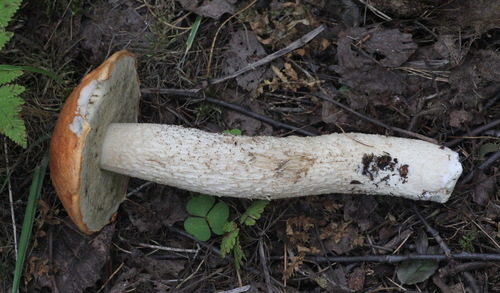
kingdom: Fungi
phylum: Basidiomycota
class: Agaricomycetes
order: Boletales
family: Boletaceae
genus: Leccinum
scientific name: Leccinum albostipitatum
